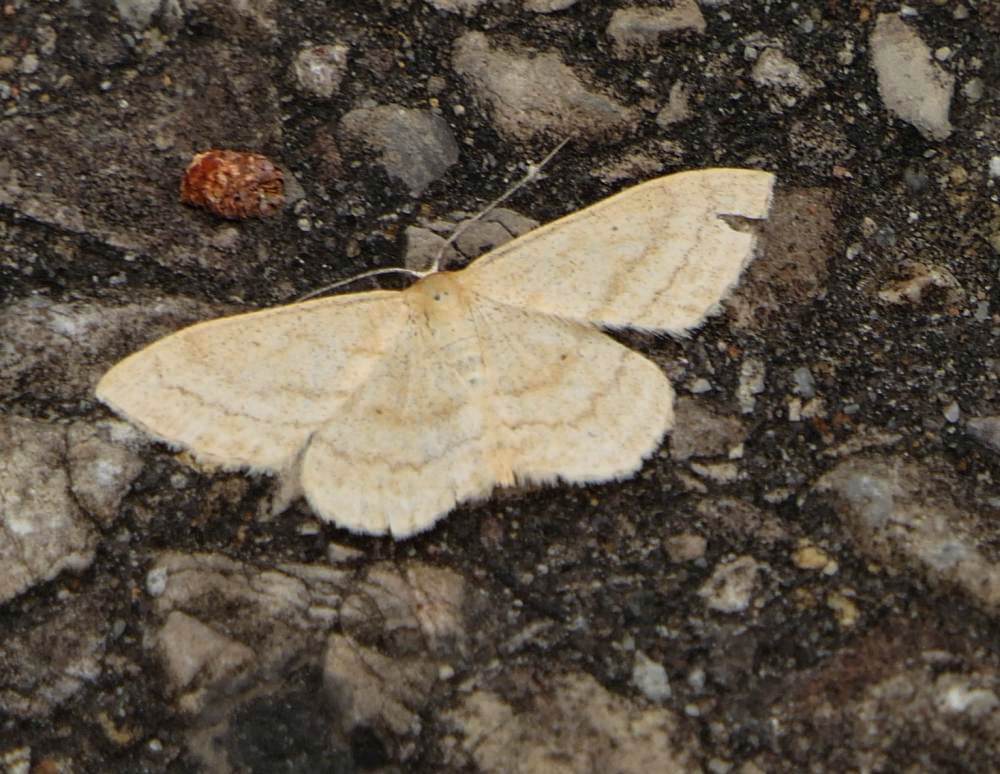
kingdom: Animalia
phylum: Arthropoda
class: Insecta
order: Lepidoptera
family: Geometridae
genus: Scopula
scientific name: Scopula inductata
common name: Soft-lined wave
